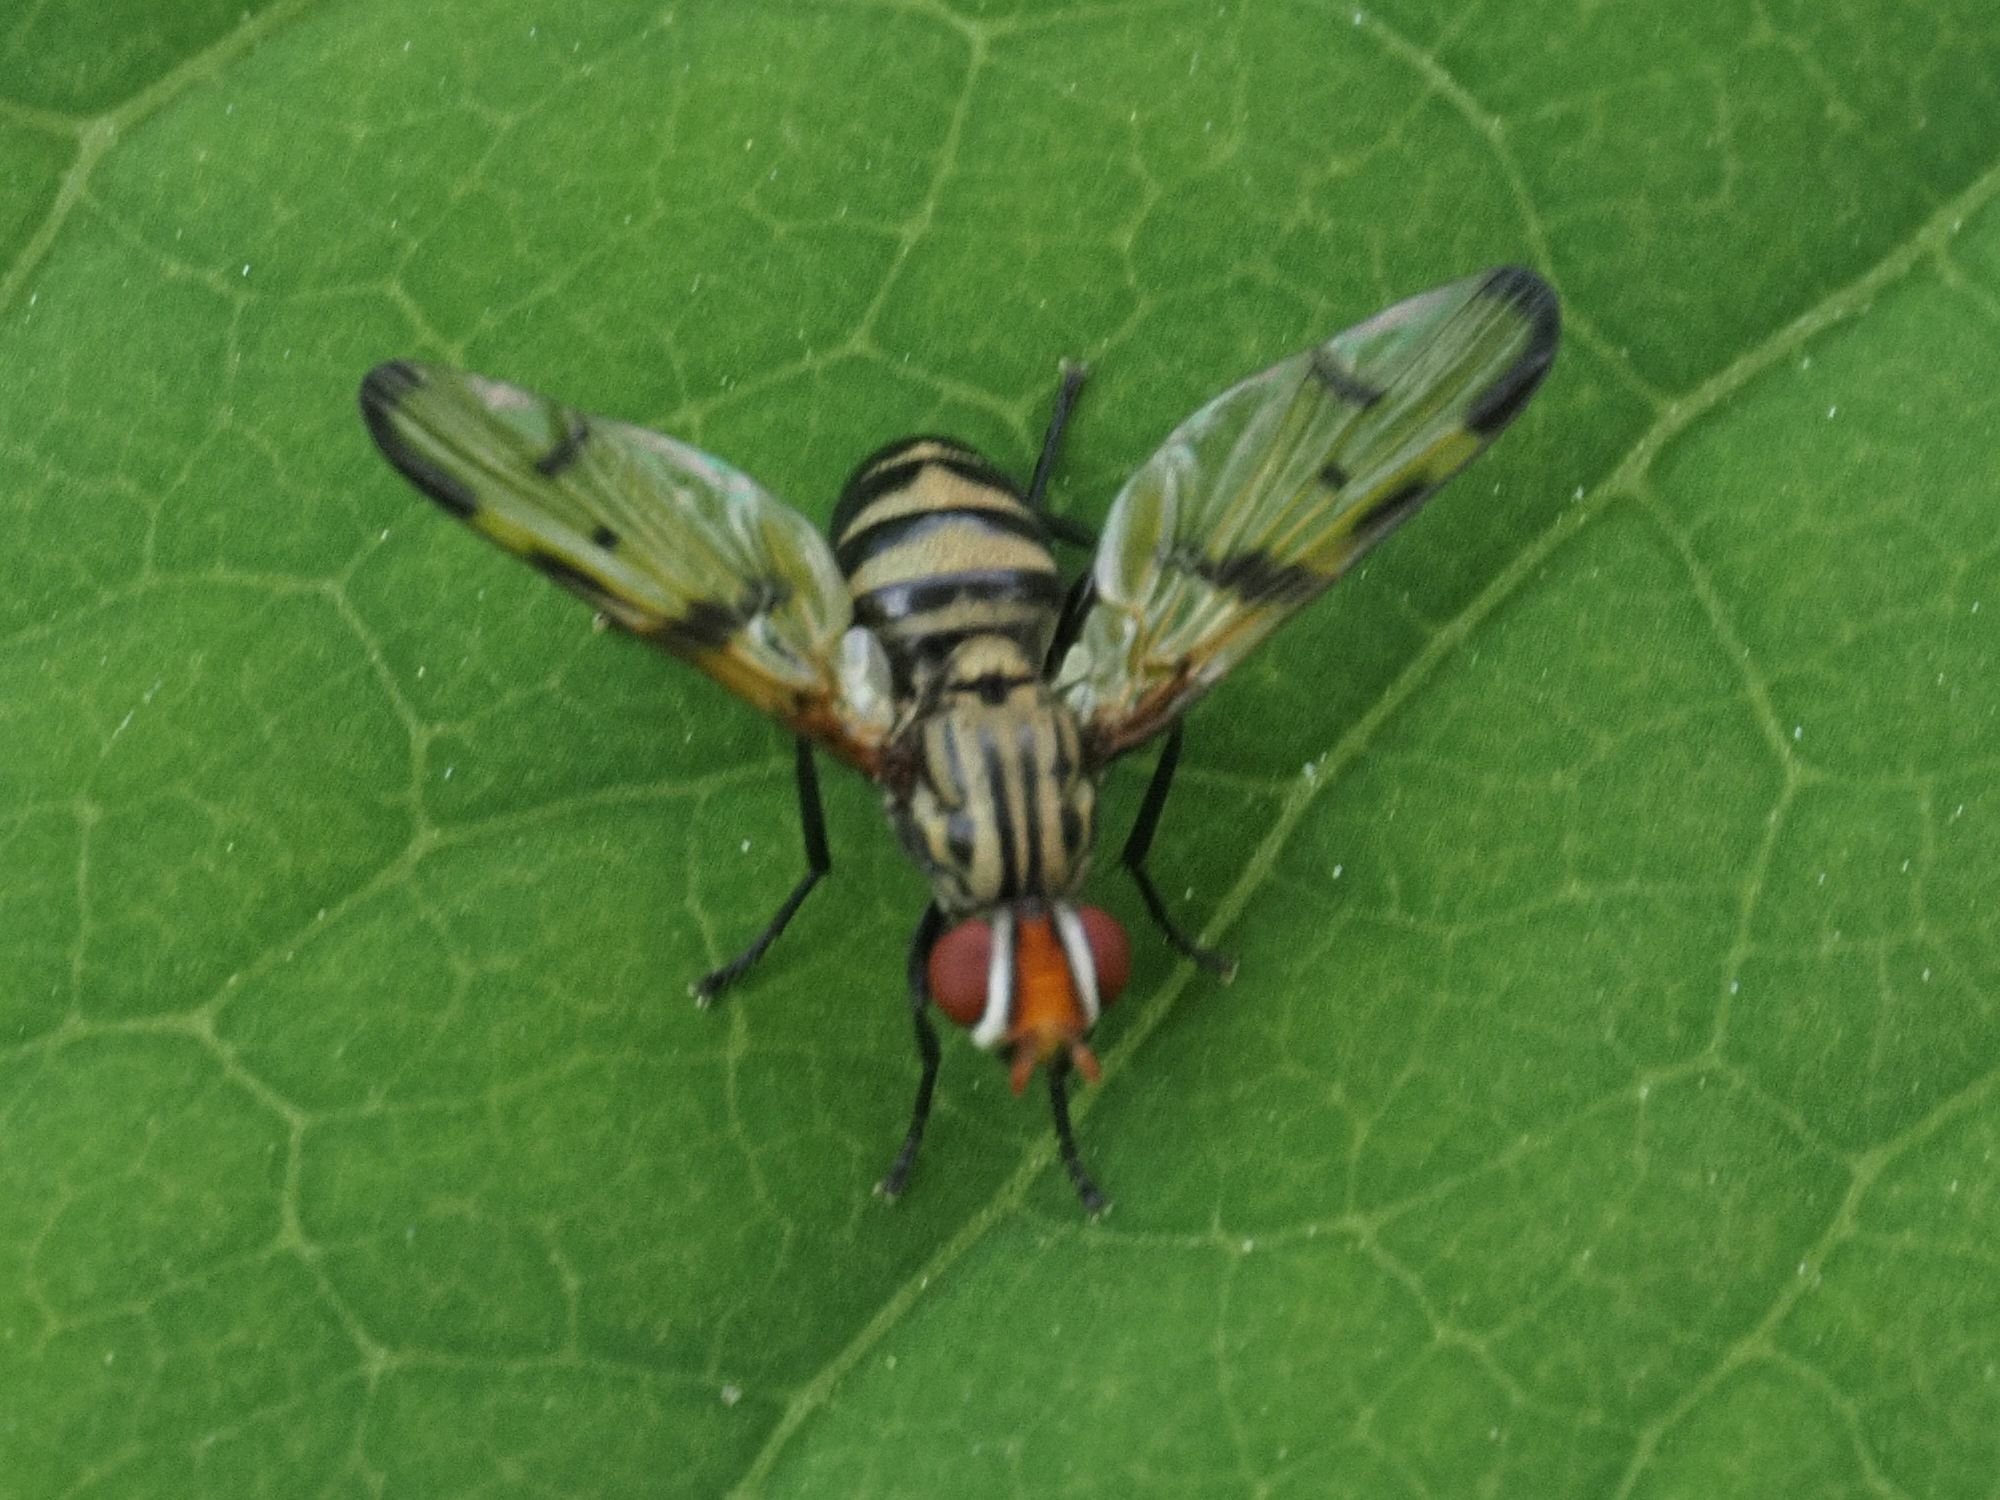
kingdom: Animalia
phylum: Arthropoda
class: Insecta
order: Diptera
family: Ulidiidae
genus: Otites
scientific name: Otites formosa
